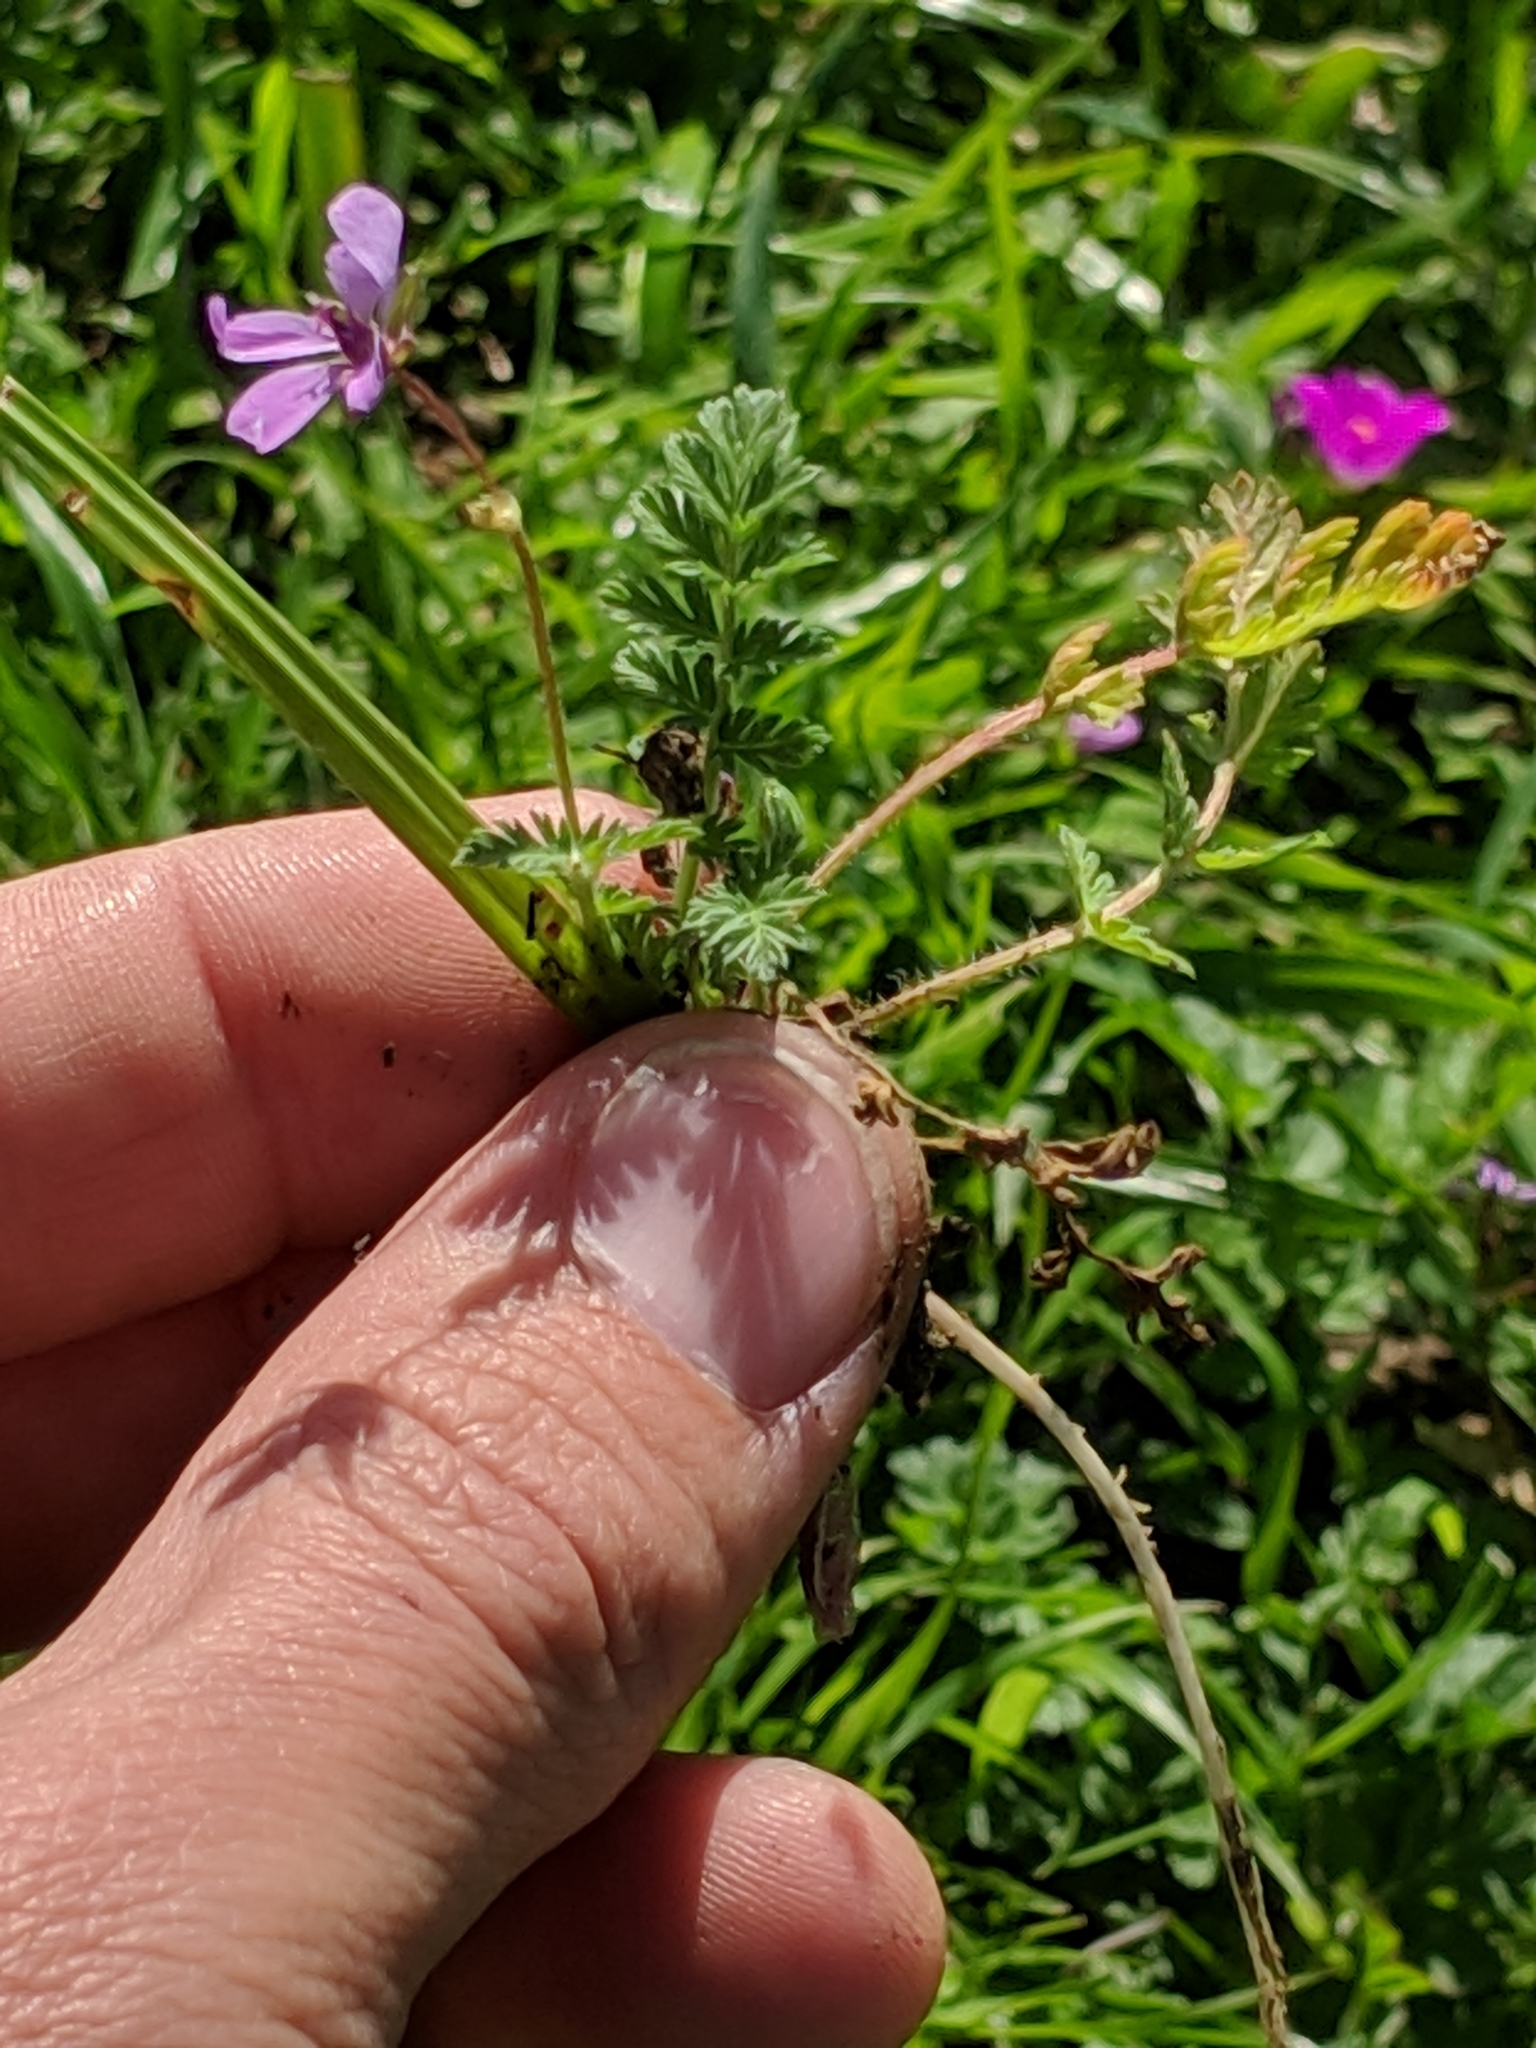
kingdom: Plantae
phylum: Tracheophyta
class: Magnoliopsida
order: Geraniales
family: Geraniaceae
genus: Erodium
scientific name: Erodium cicutarium
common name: Common stork's-bill
